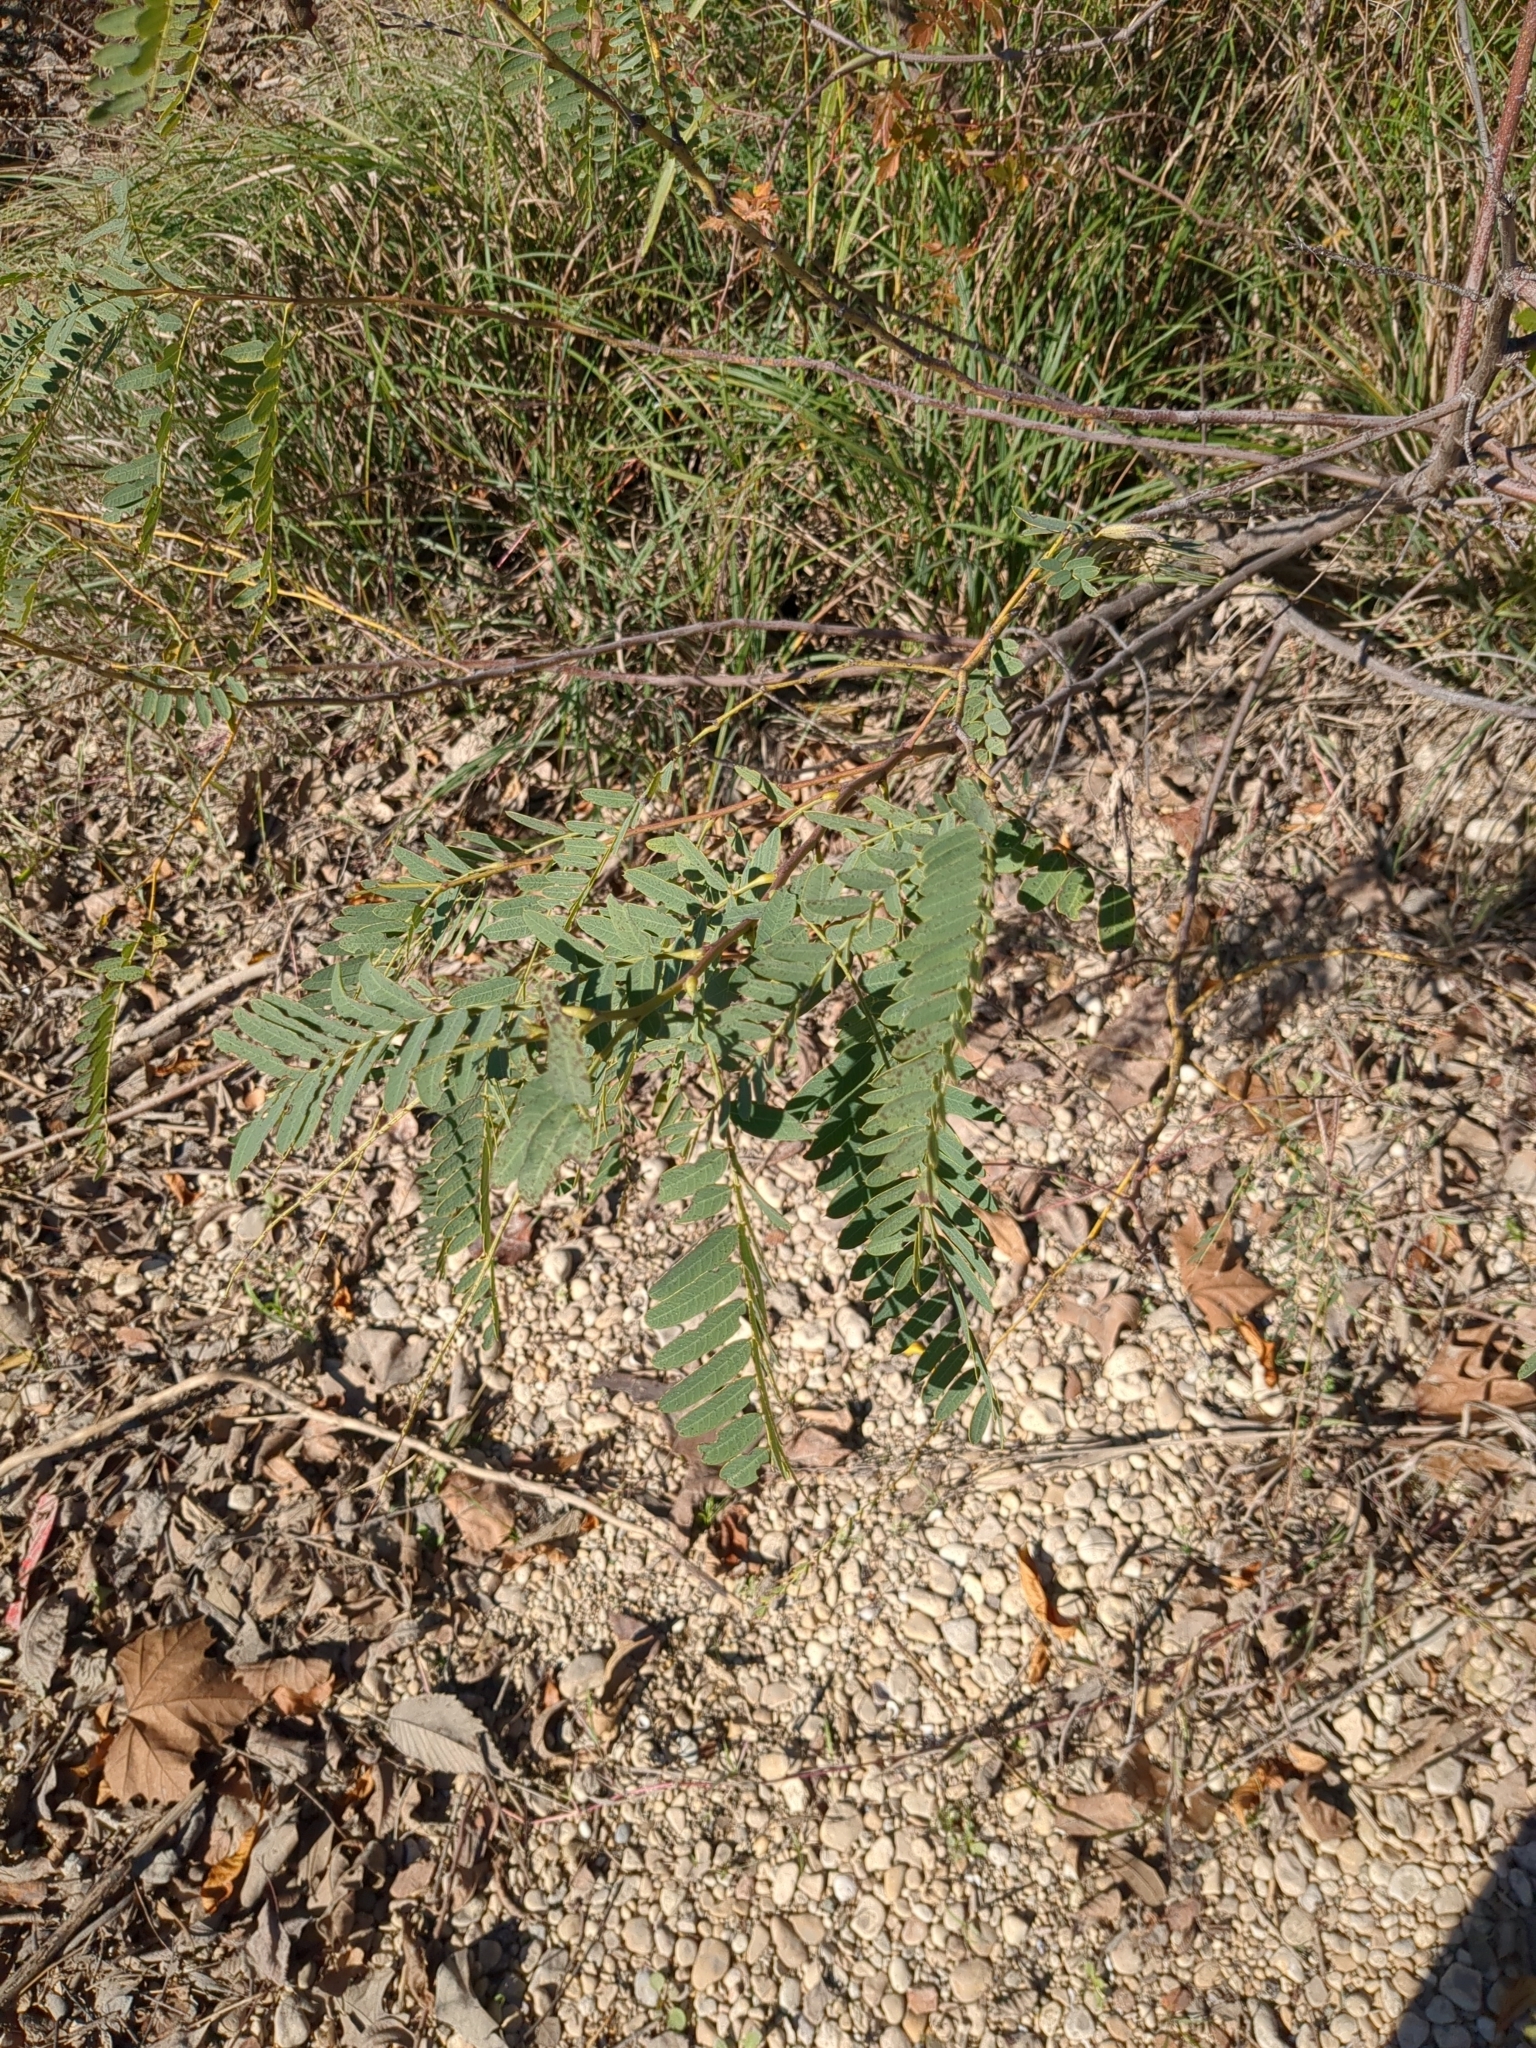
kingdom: Plantae
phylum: Tracheophyta
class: Magnoliopsida
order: Fabales
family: Fabaceae
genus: Sesbania
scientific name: Sesbania drummondii
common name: Poison-bean
